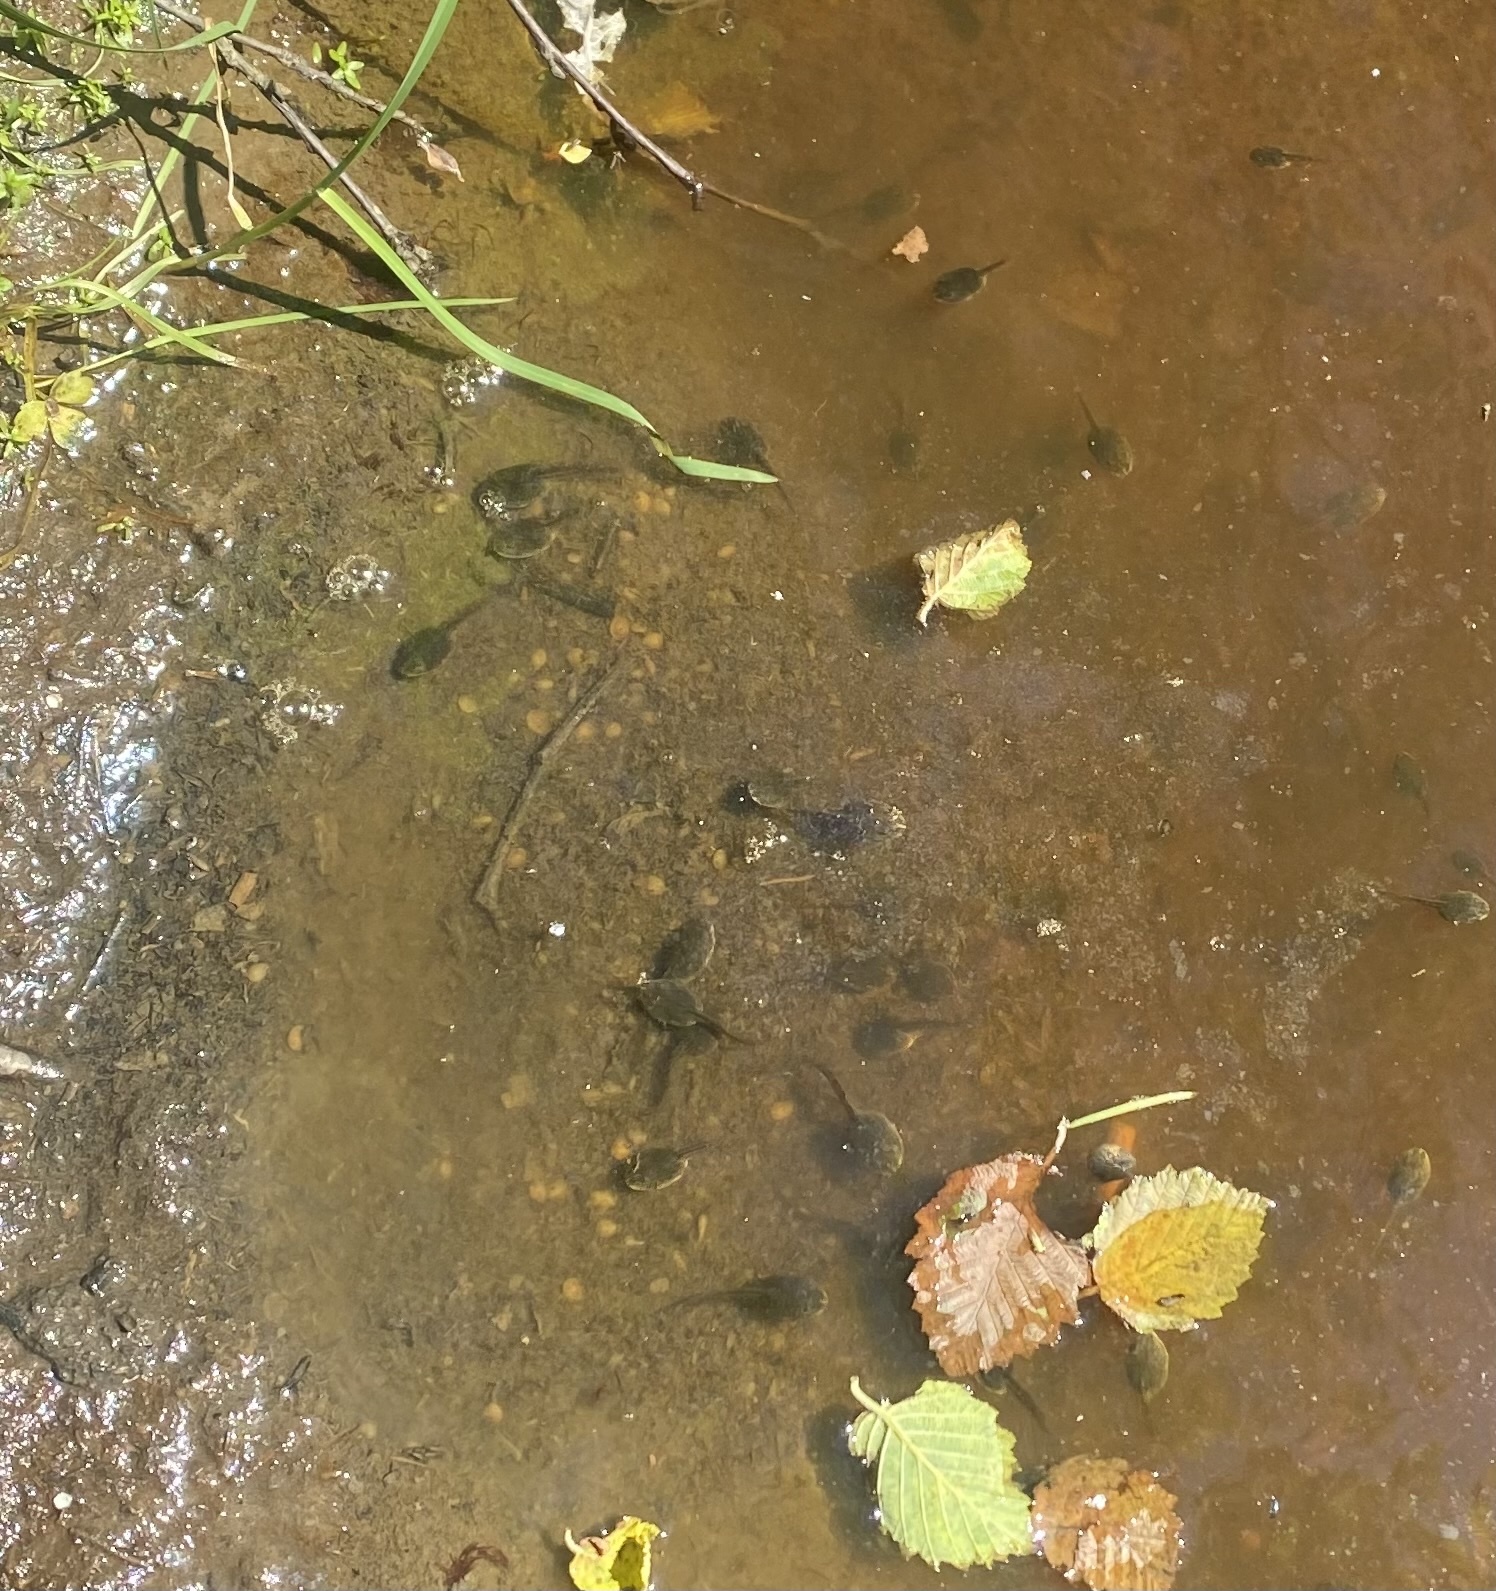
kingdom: Animalia
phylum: Chordata
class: Amphibia
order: Anura
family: Ranidae
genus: Rana
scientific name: Rana macrocnemis
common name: Banded frog
